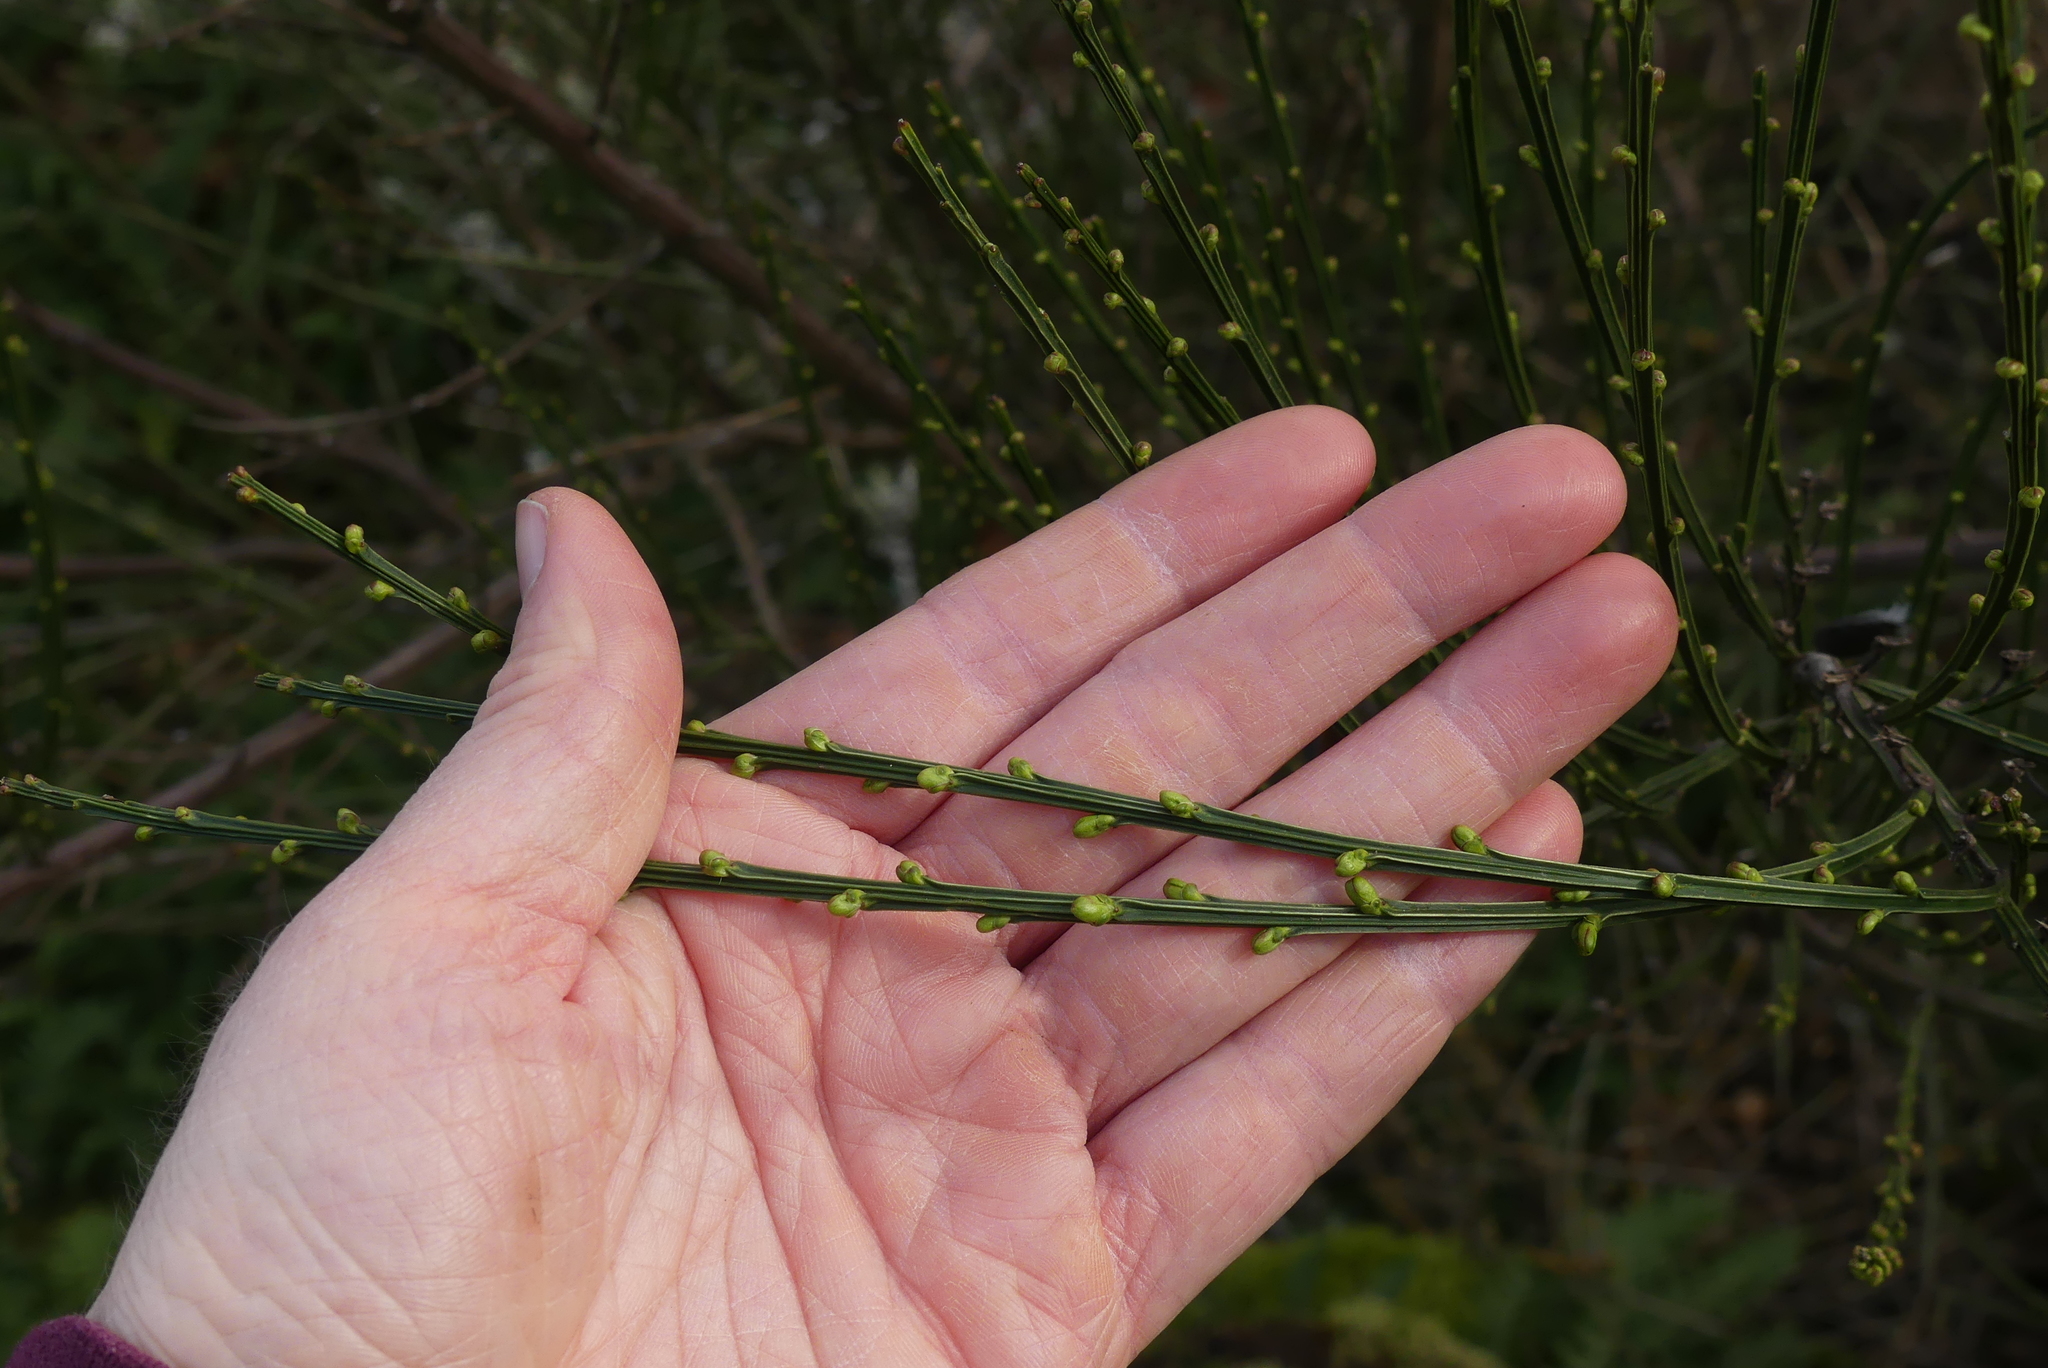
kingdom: Plantae
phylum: Tracheophyta
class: Magnoliopsida
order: Fabales
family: Fabaceae
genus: Cytisus
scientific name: Cytisus scoparius
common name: Scotch broom
